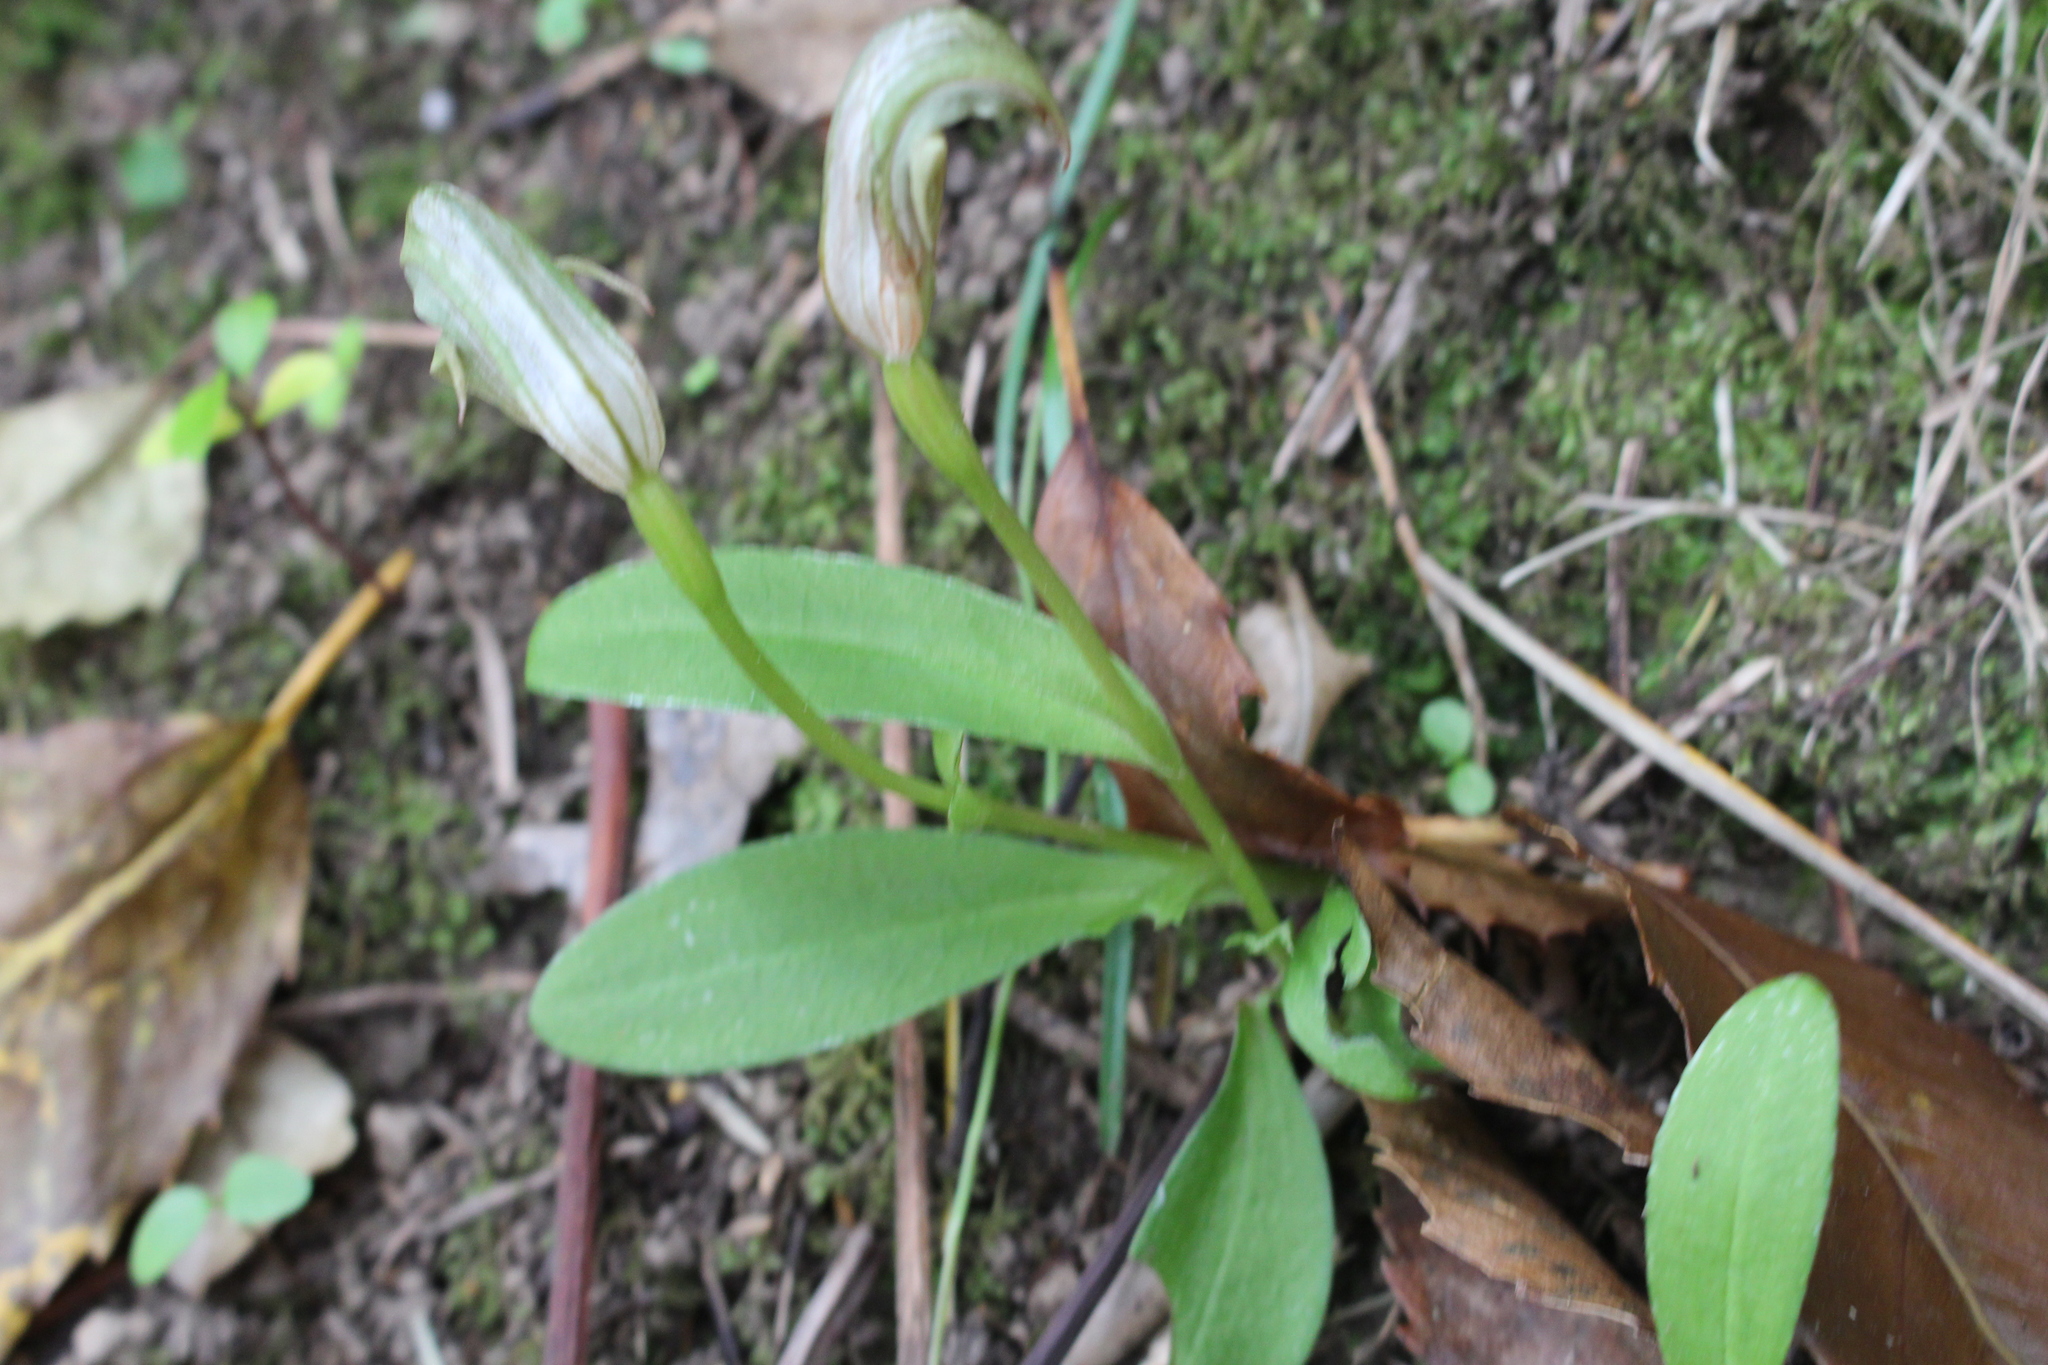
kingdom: Plantae
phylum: Tracheophyta
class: Liliopsida
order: Asparagales
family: Orchidaceae
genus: Pterostylis
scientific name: Pterostylis areolata
